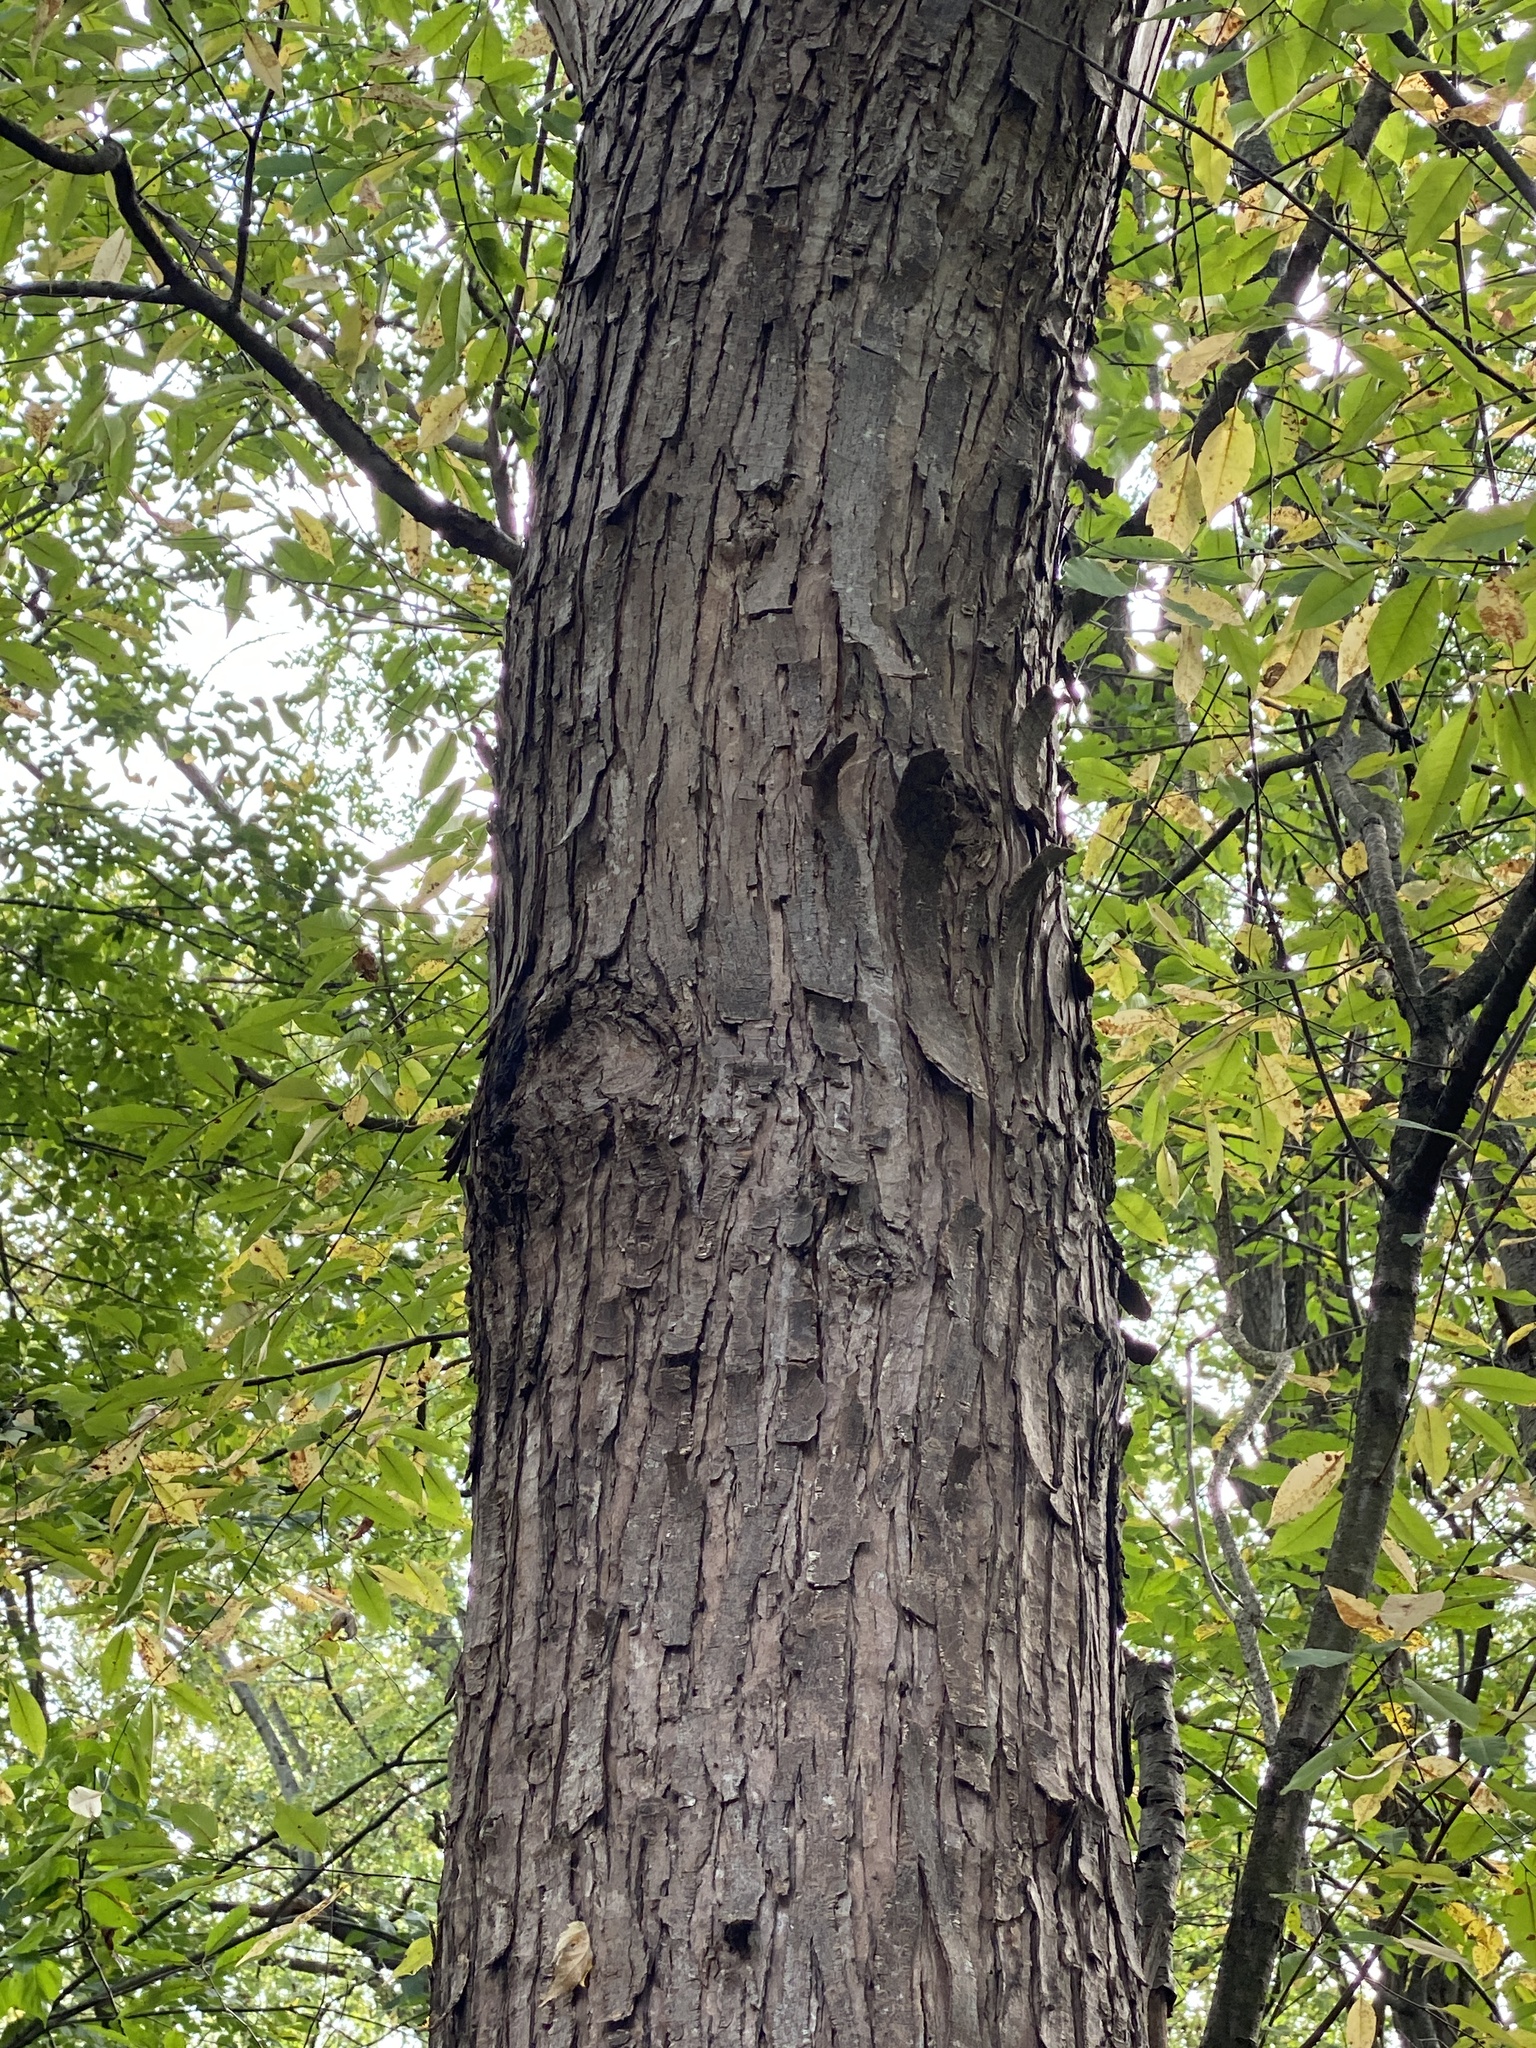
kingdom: Plantae
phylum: Tracheophyta
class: Magnoliopsida
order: Sapindales
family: Sapindaceae
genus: Acer
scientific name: Acer saccharinum
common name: Silver maple
